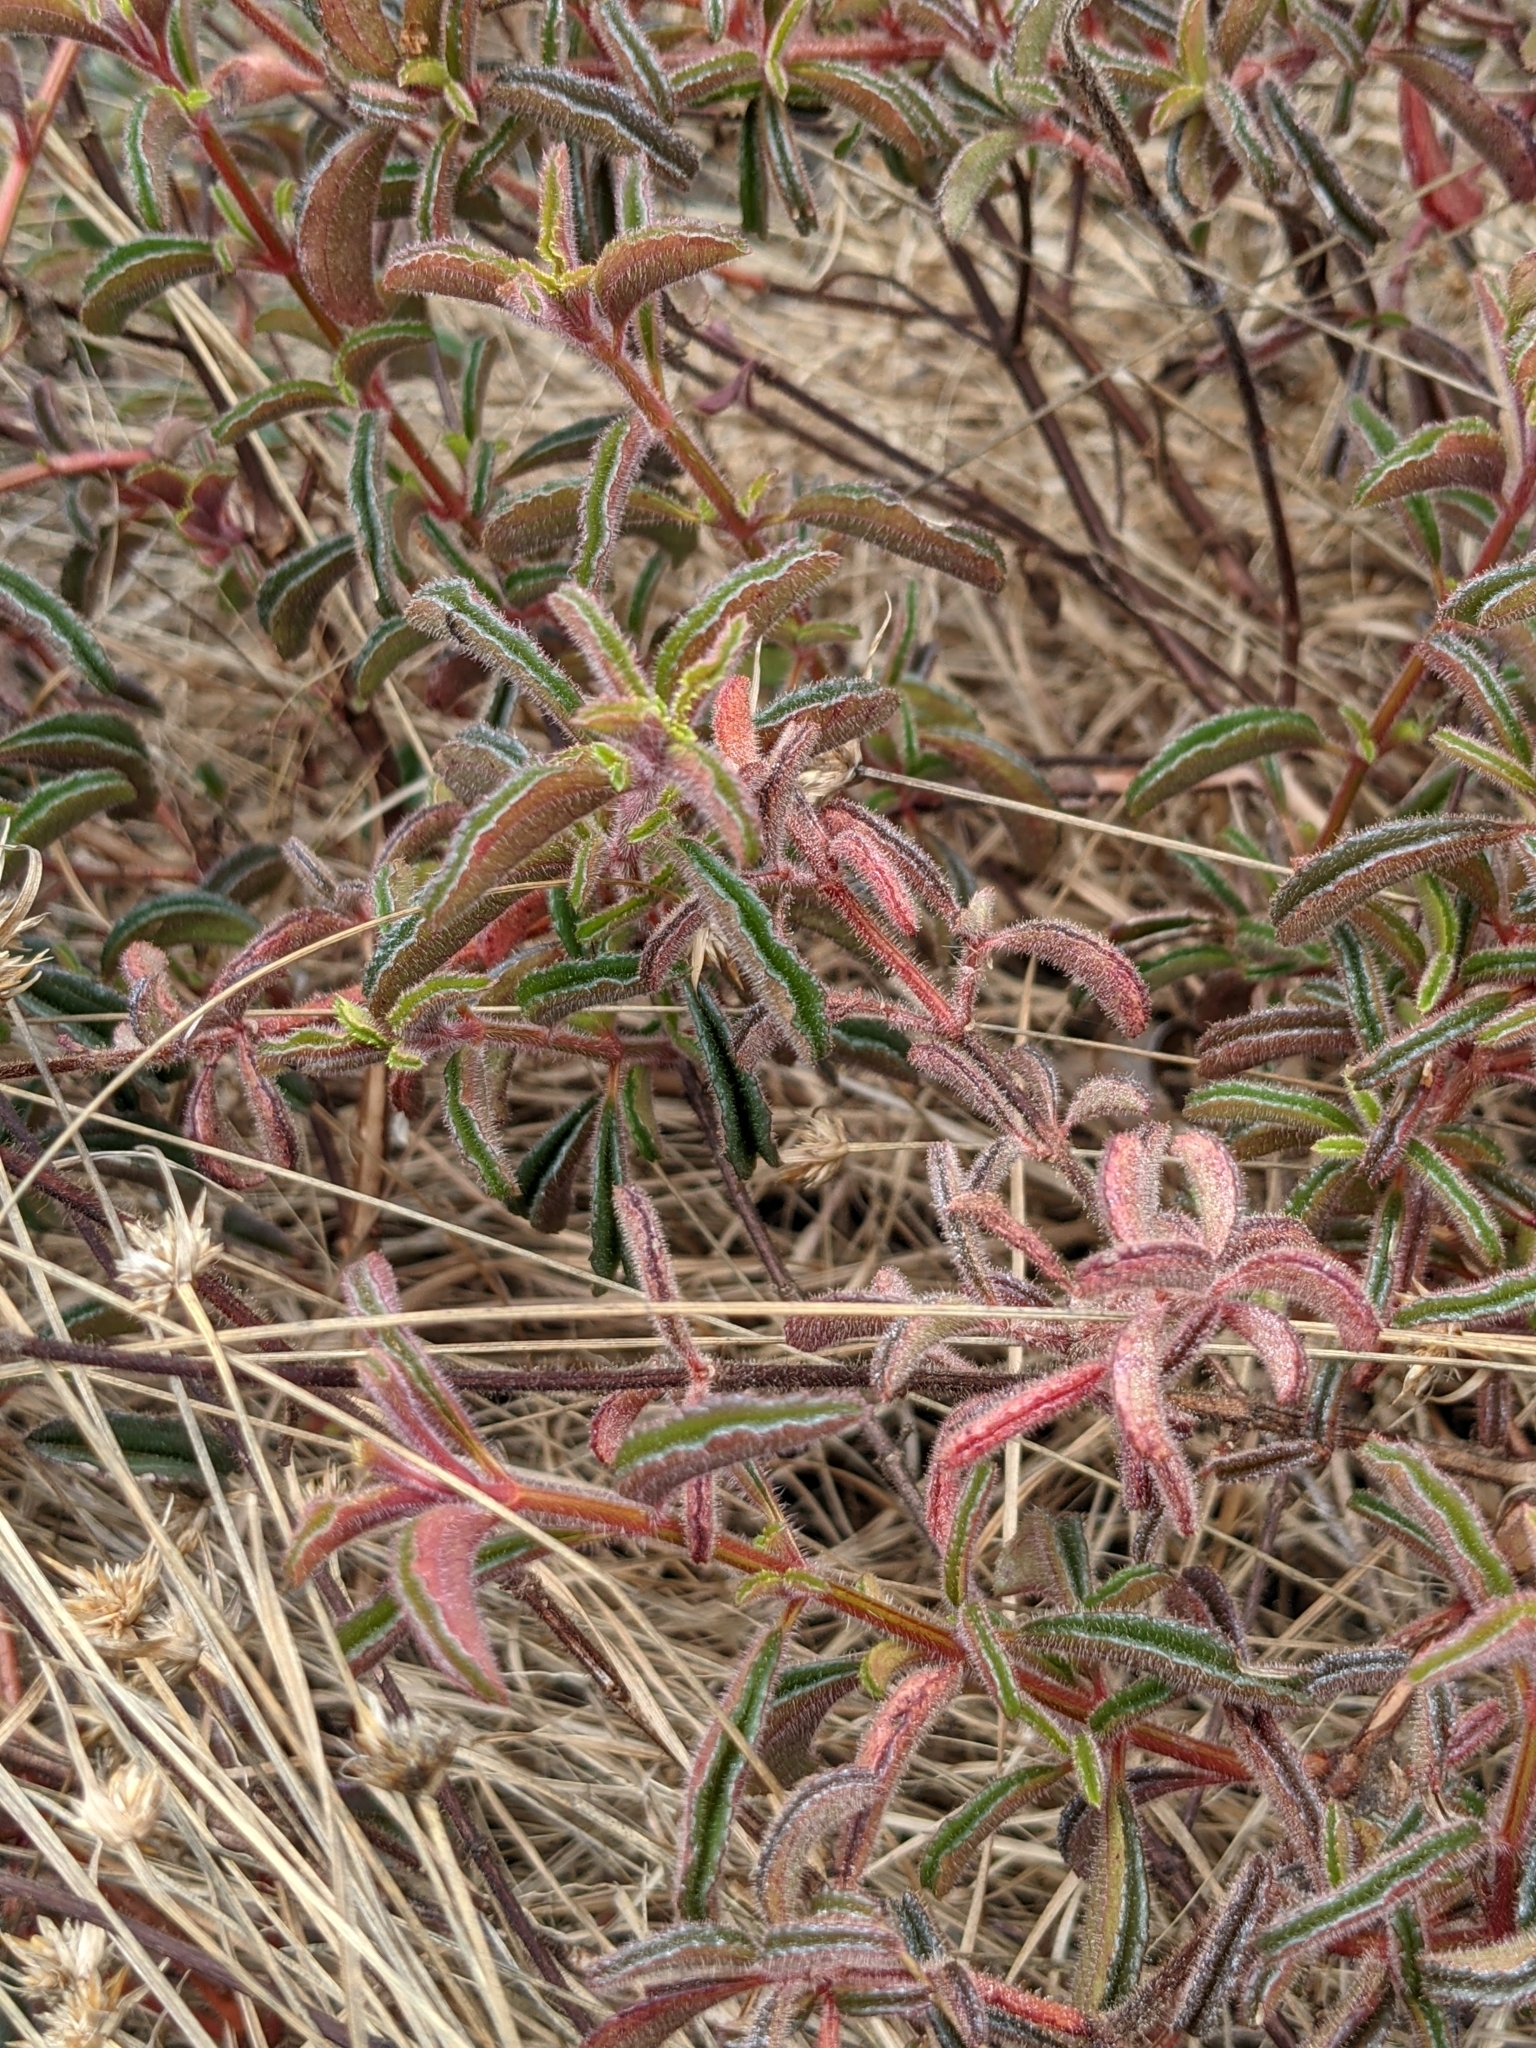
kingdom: Plantae
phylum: Tracheophyta
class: Magnoliopsida
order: Myrtales
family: Melastomataceae
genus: Ernestia
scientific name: Ernestia confertiflora
